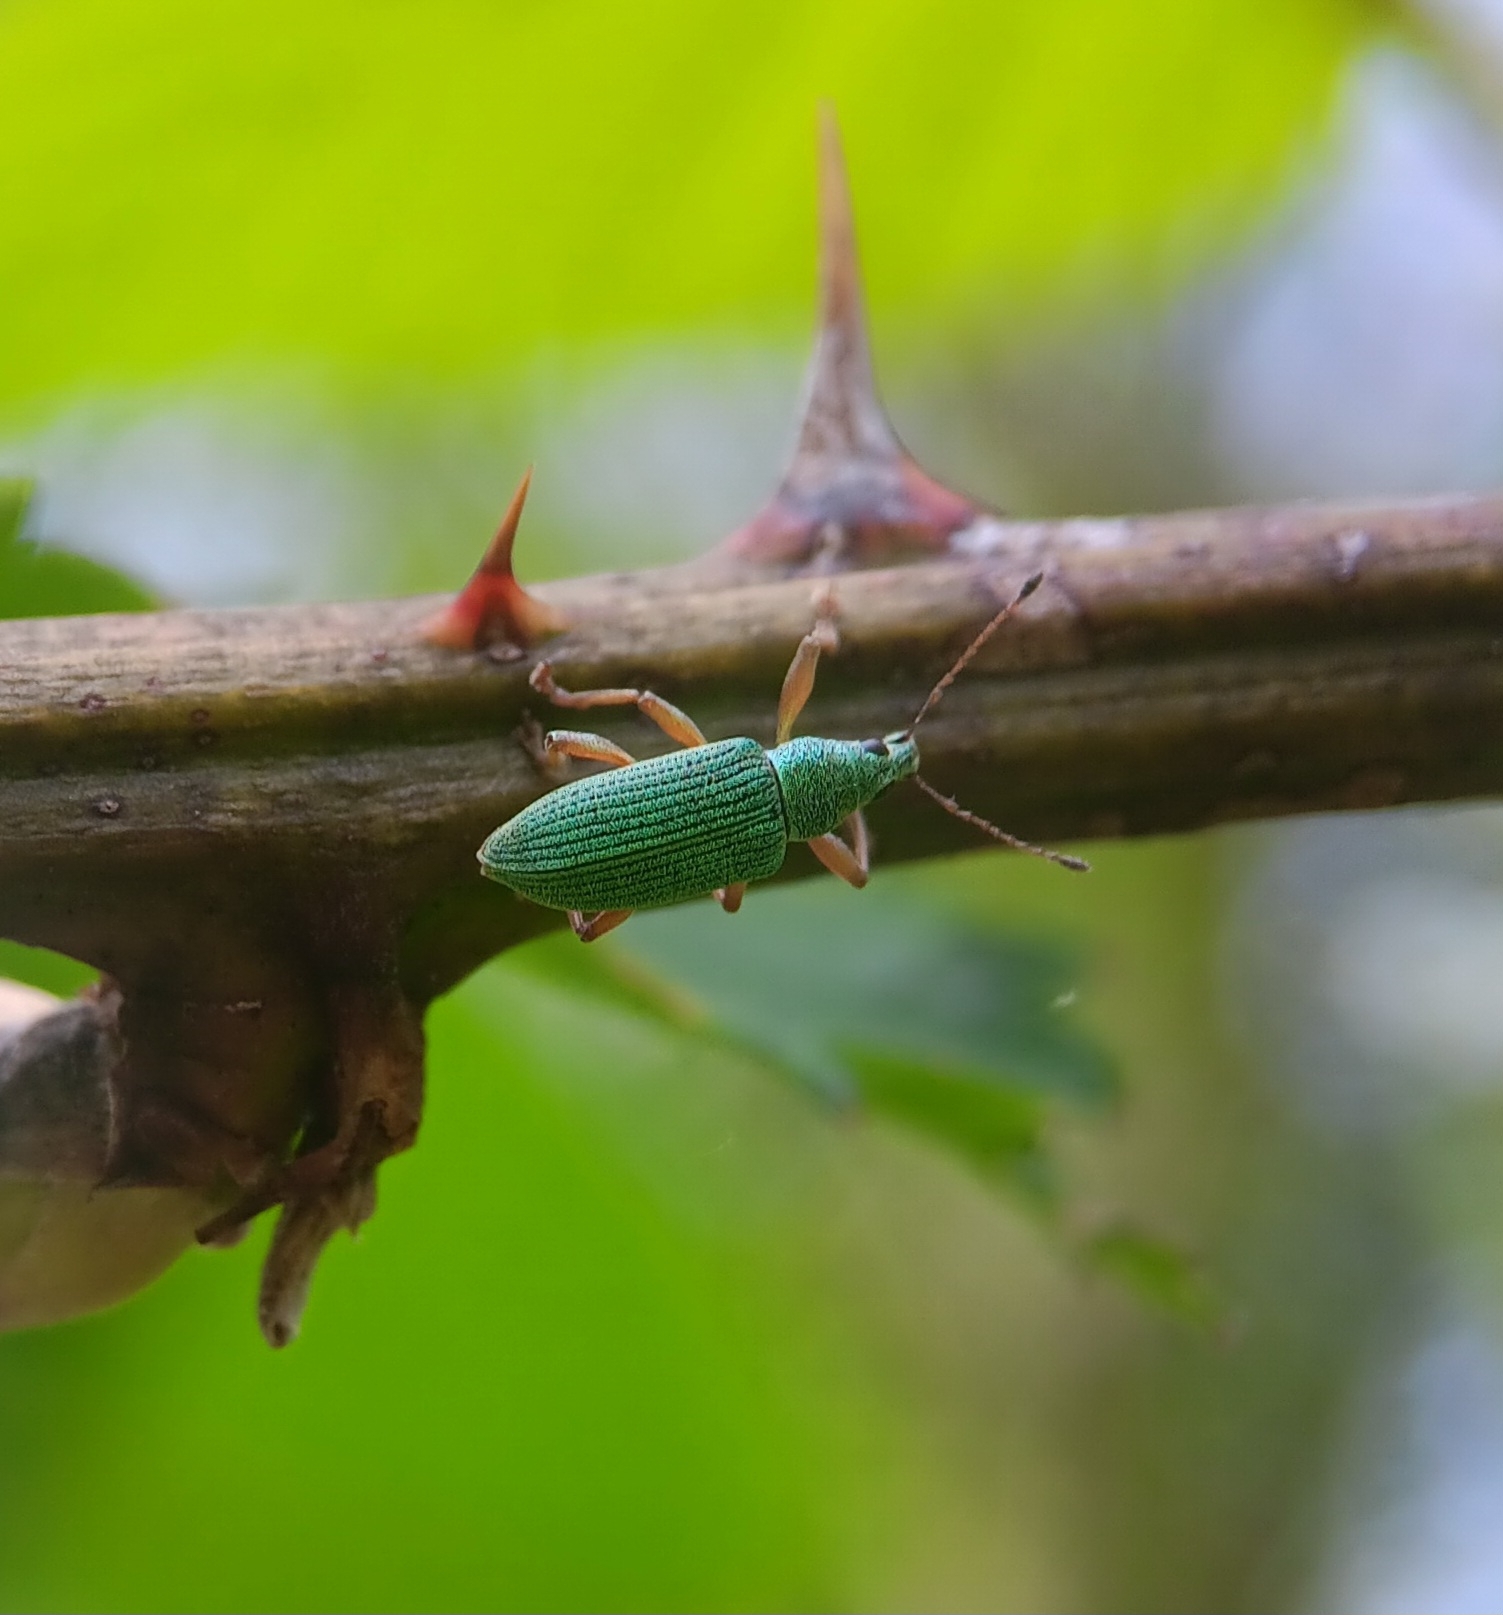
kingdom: Animalia
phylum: Arthropoda
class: Insecta
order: Coleoptera
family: Curculionidae
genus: Polydrusus
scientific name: Polydrusus formosus
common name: Weevil
